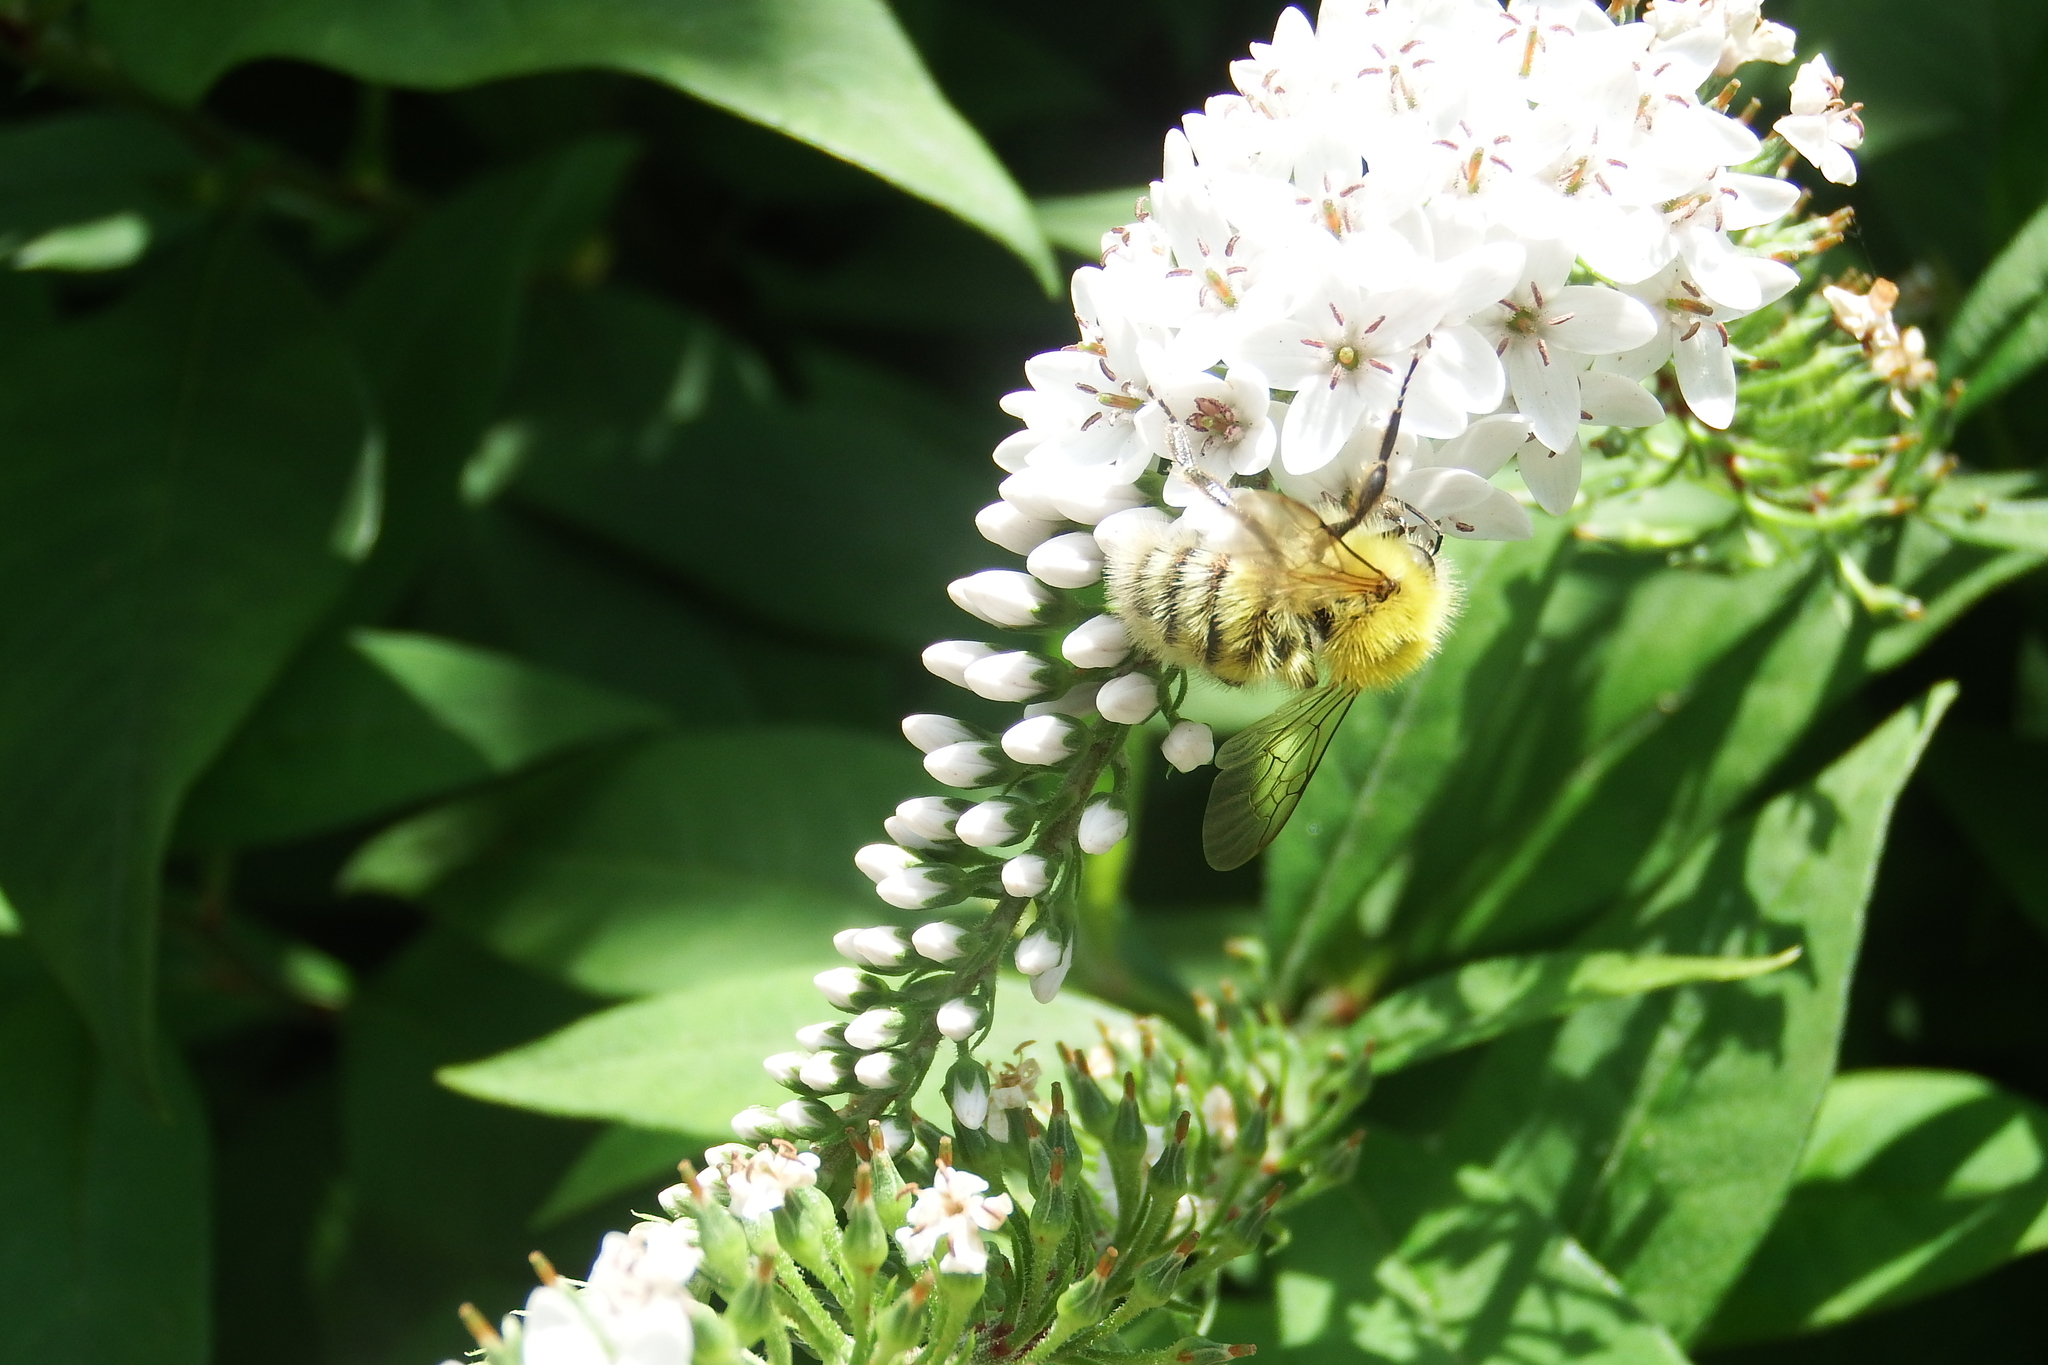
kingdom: Animalia
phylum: Arthropoda
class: Insecta
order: Hymenoptera
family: Apidae
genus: Bombus
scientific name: Bombus perplexus
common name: Confusing bumble bee
